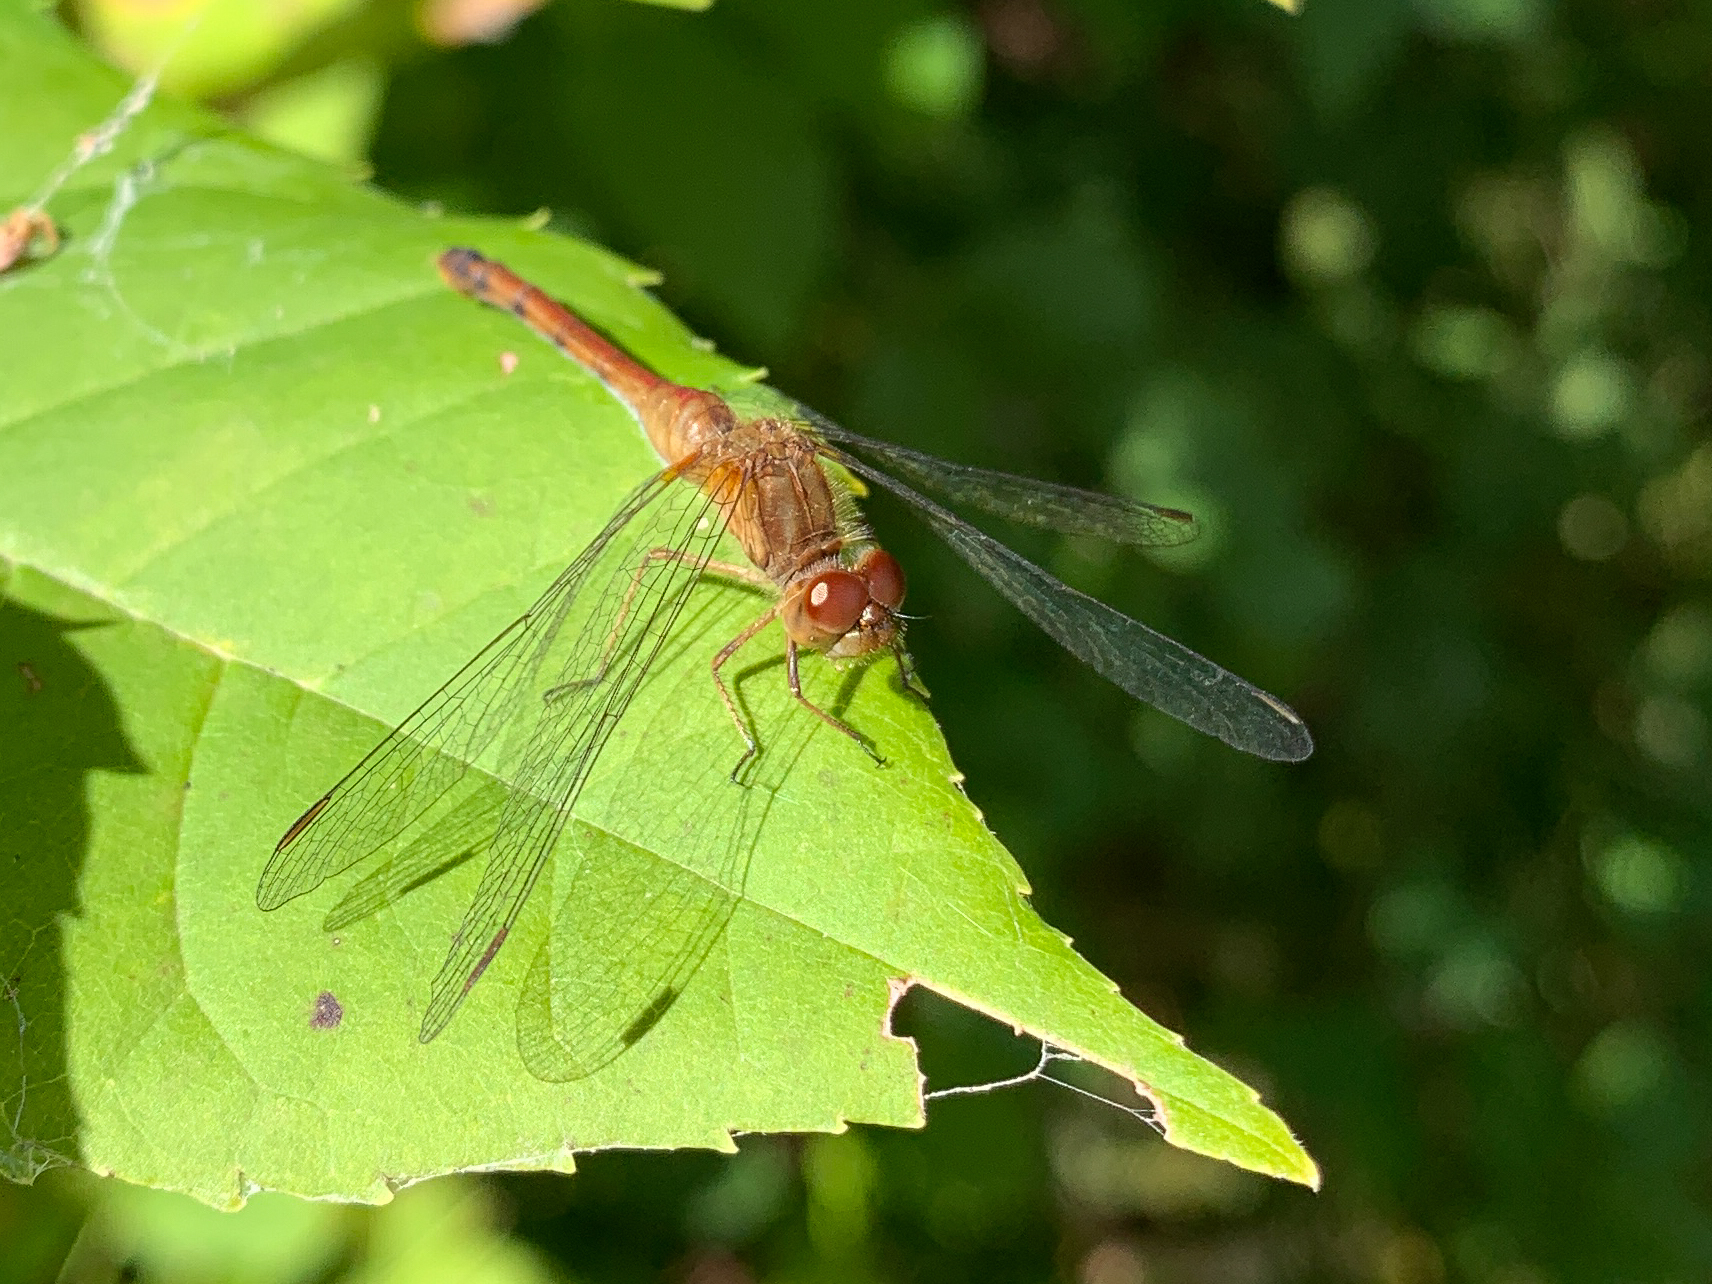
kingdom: Animalia
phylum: Arthropoda
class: Insecta
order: Odonata
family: Libellulidae
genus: Sympetrum
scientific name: Sympetrum vicinum
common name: Autumn meadowhawk
